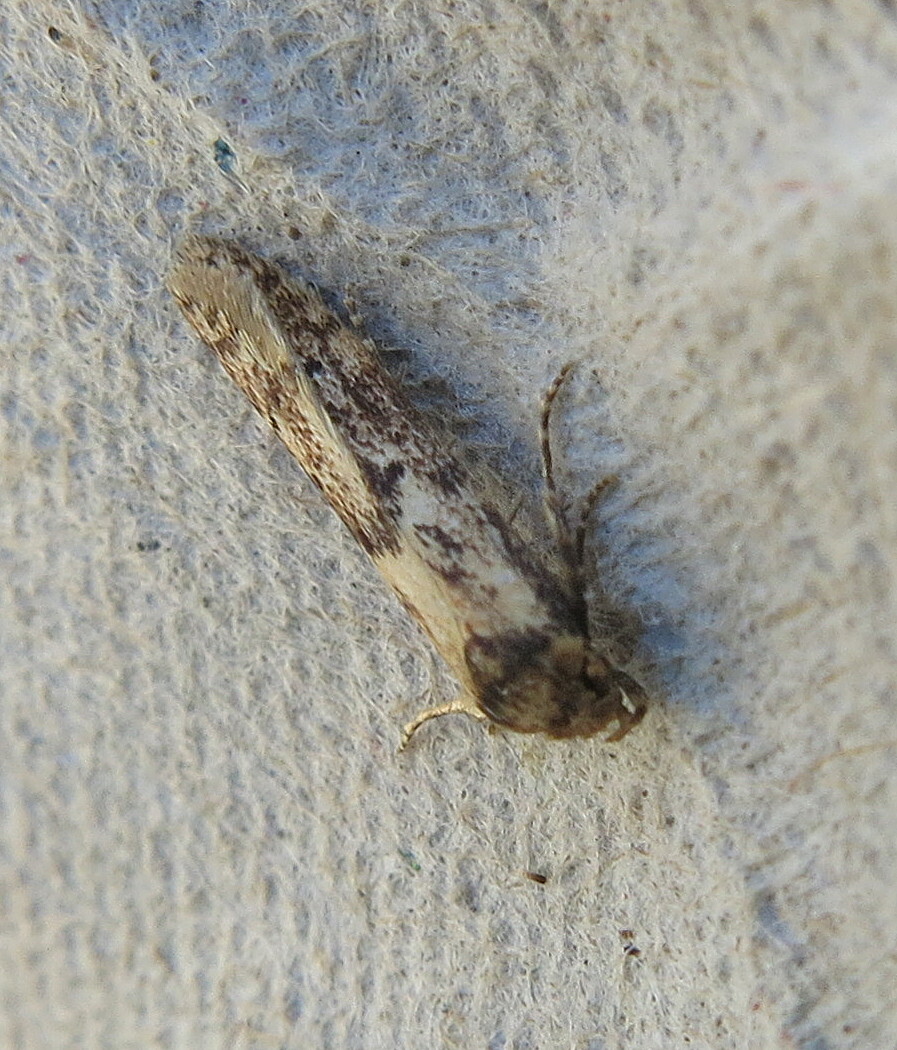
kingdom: Animalia
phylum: Arthropoda
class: Insecta
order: Lepidoptera
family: Blastobasidae
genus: Blastobasis
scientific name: Blastobasis adustella
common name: Dingy dowd
